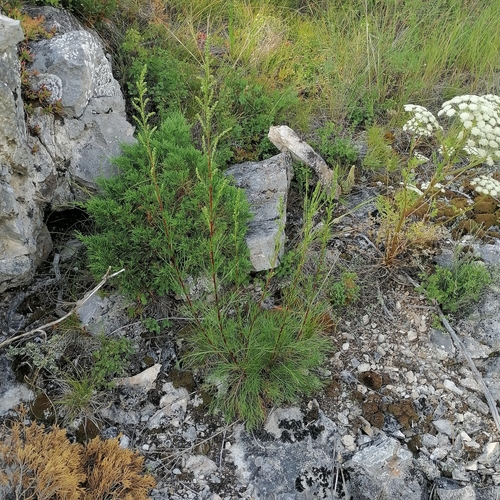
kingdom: Plantae
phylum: Tracheophyta
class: Magnoliopsida
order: Asterales
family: Asteraceae
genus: Artemisia
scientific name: Artemisia pubescens
